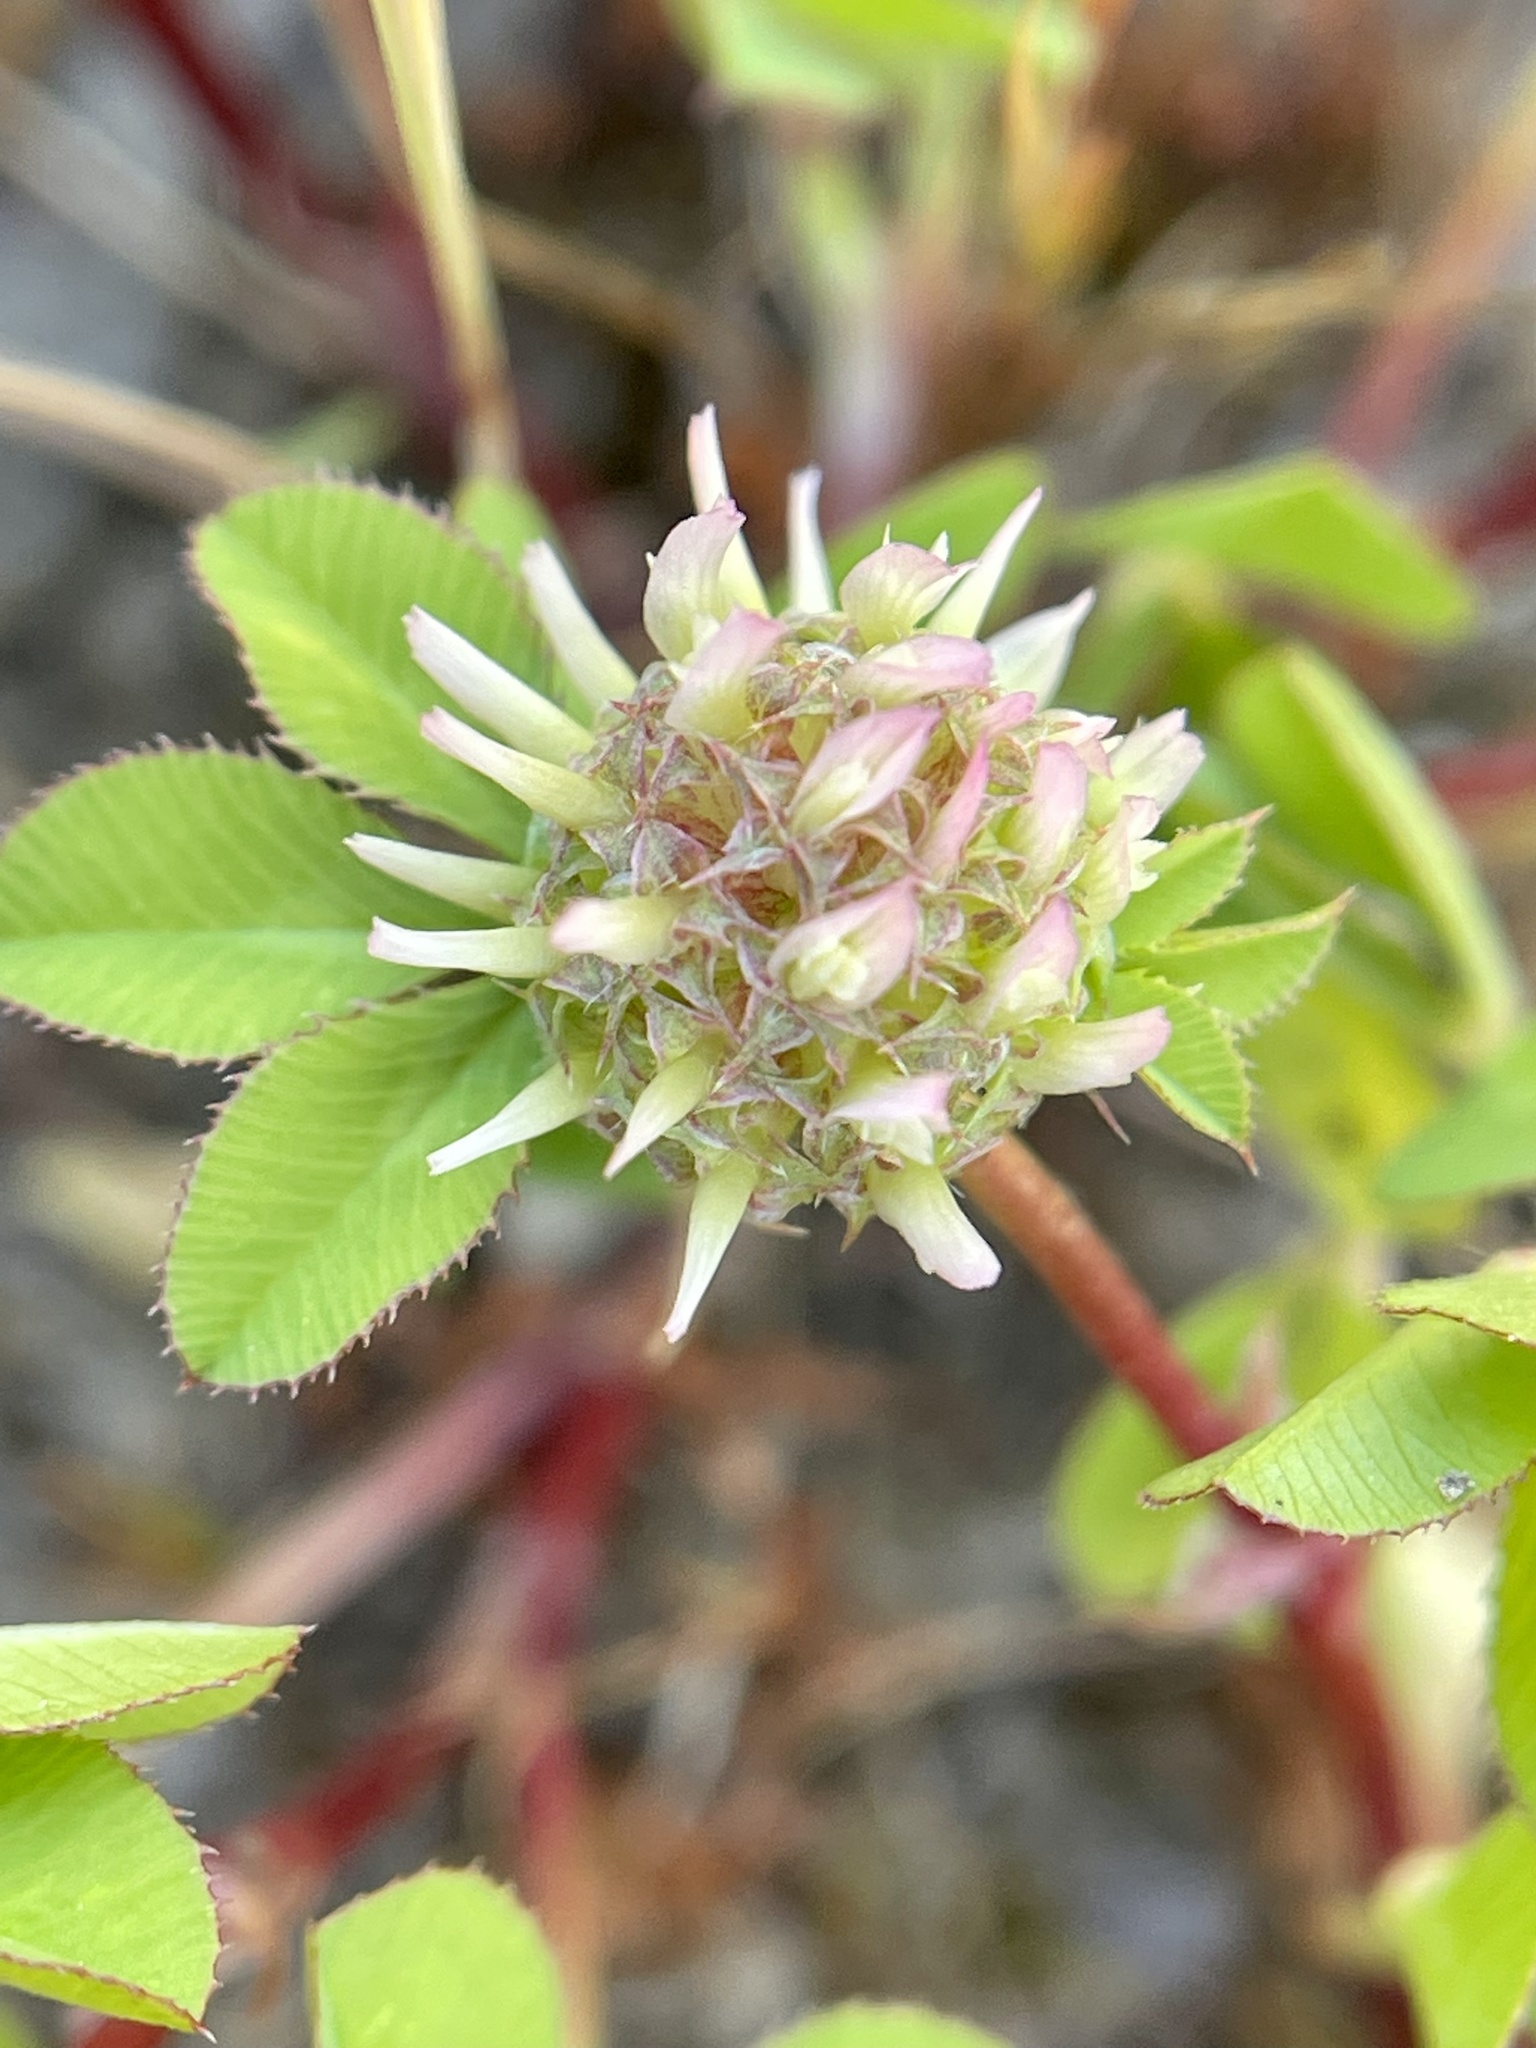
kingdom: Plantae
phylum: Tracheophyta
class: Magnoliopsida
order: Fabales
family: Fabaceae
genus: Trifolium
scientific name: Trifolium glomeratum
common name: Clustered clover
